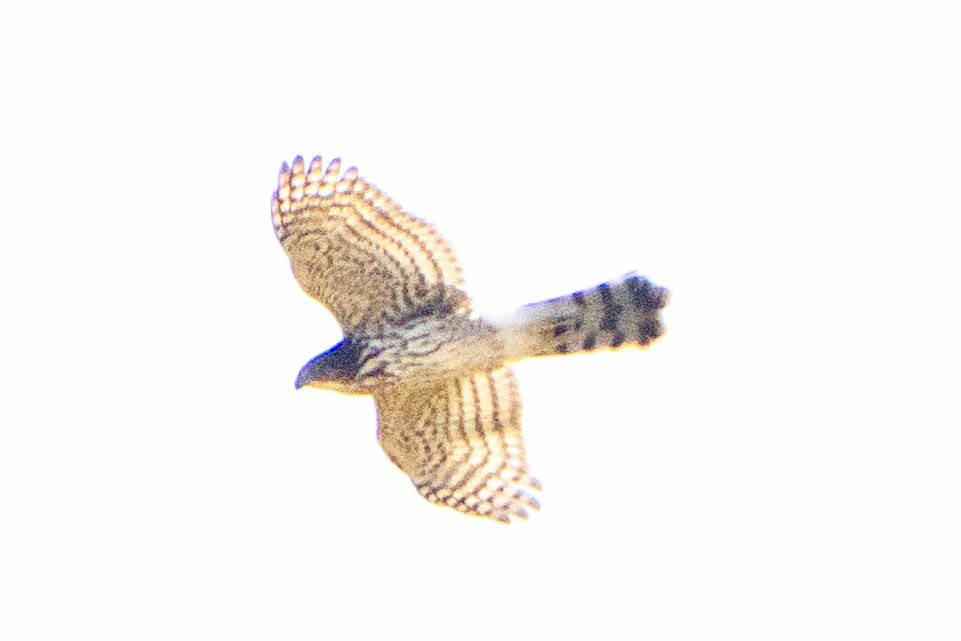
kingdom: Animalia
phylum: Chordata
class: Aves
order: Accipitriformes
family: Accipitridae
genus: Accipiter
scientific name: Accipiter cooperii
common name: Cooper's hawk
